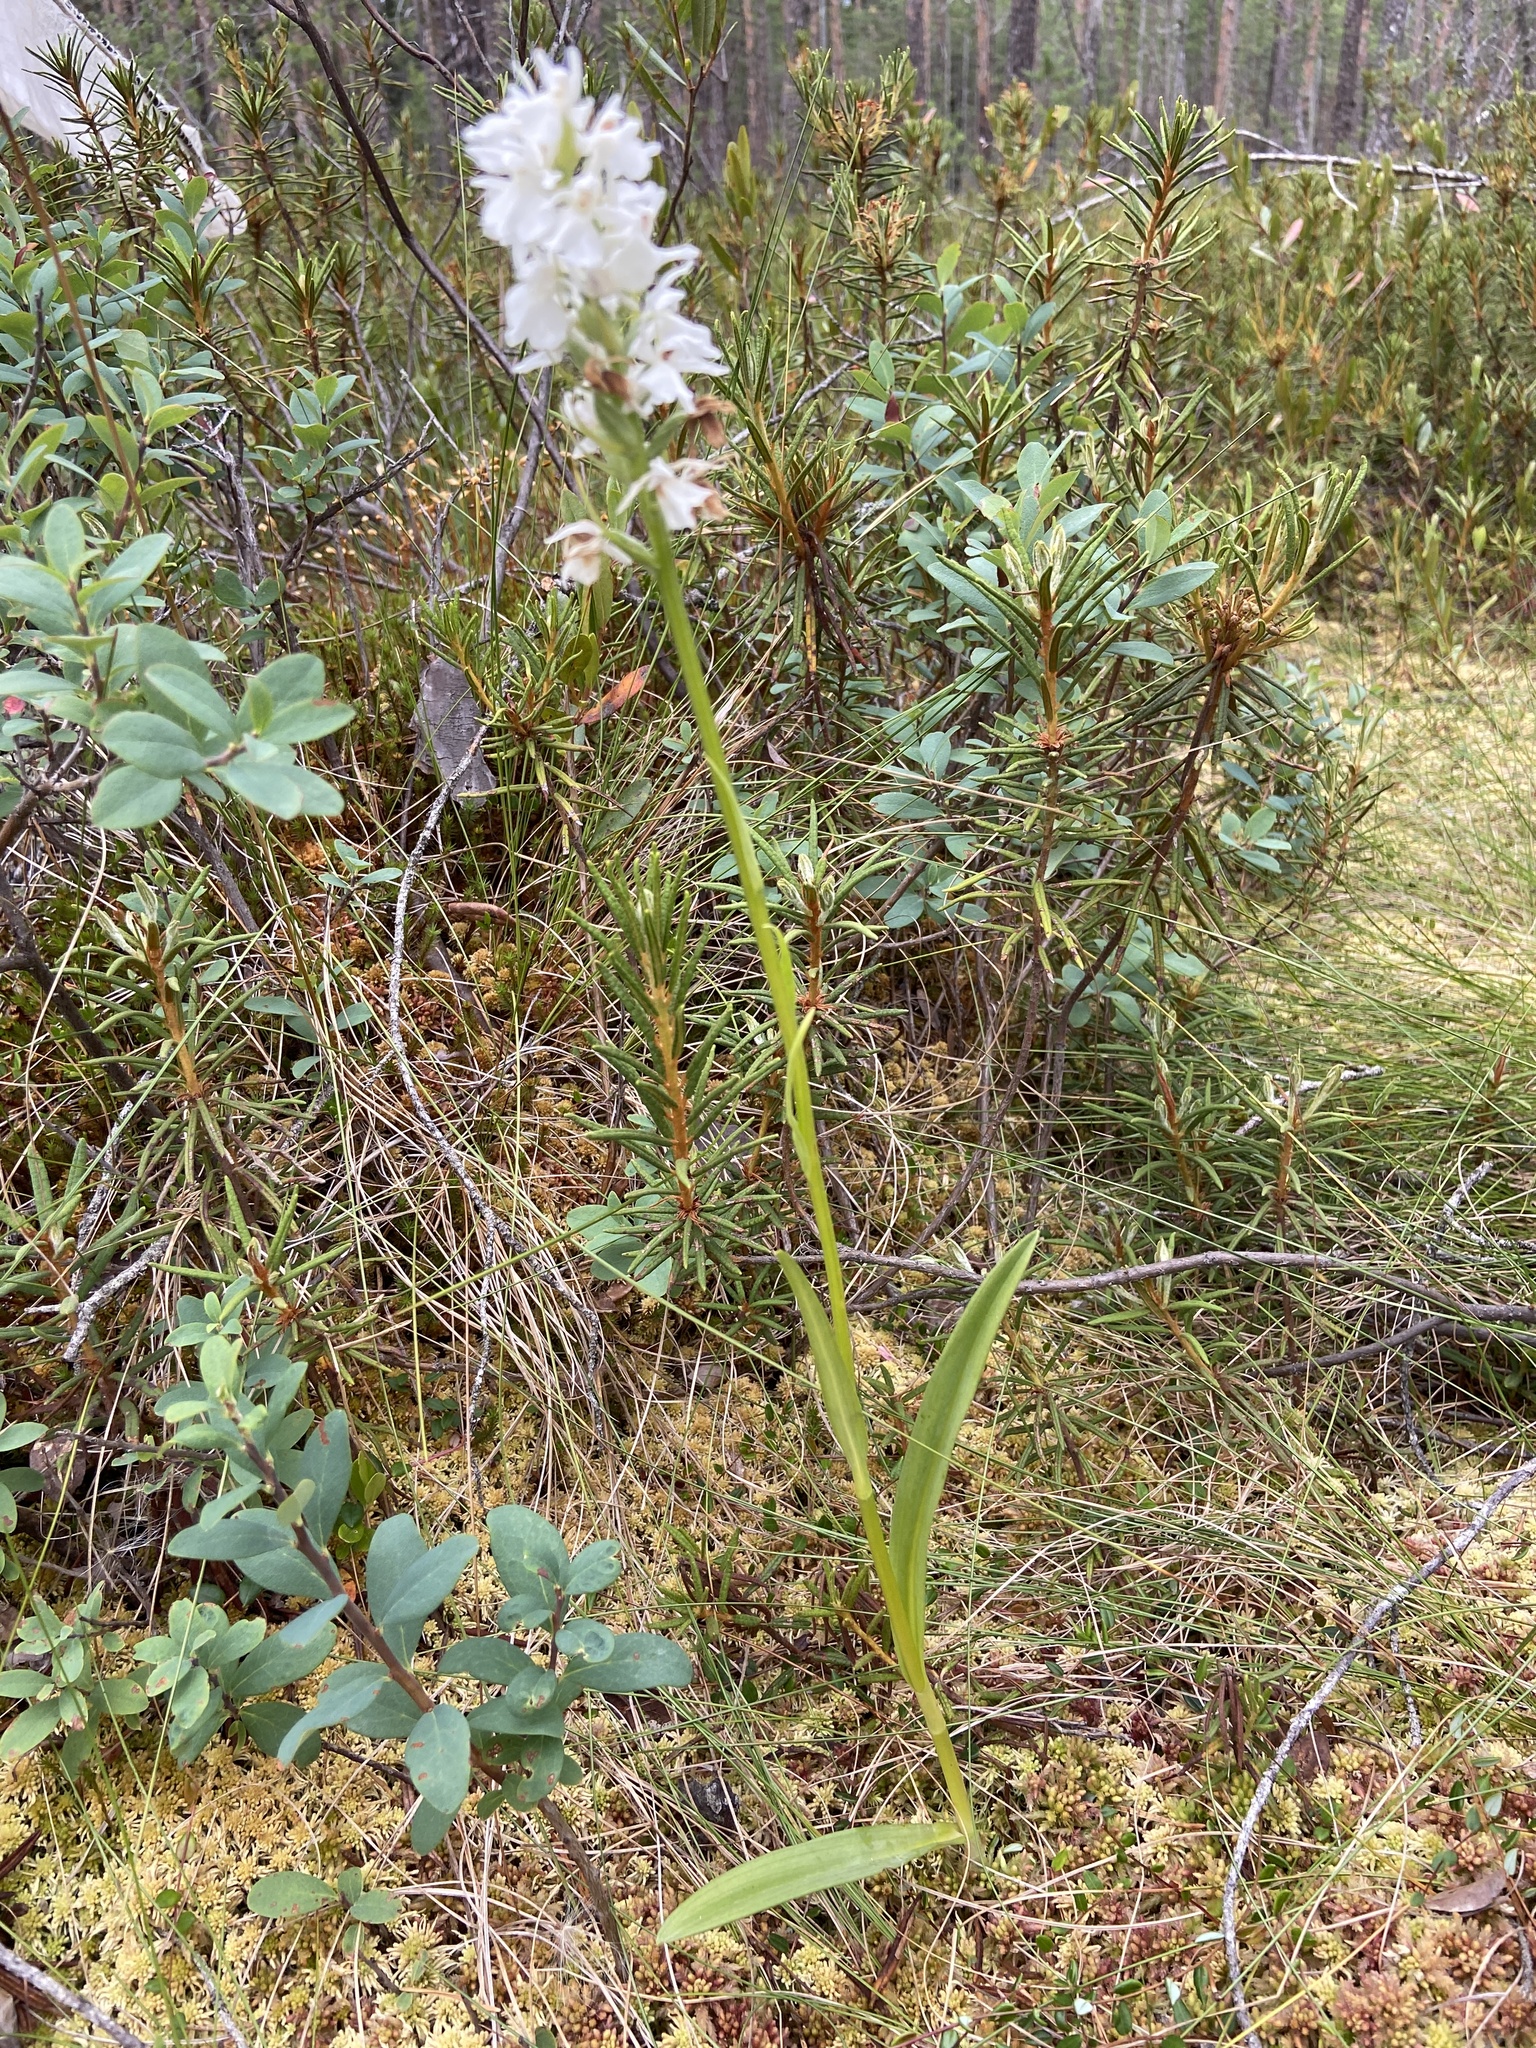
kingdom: Plantae
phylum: Tracheophyta
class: Liliopsida
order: Asparagales
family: Orchidaceae
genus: Dactylorhiza
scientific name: Dactylorhiza maculata
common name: Heath spotted-orchid
